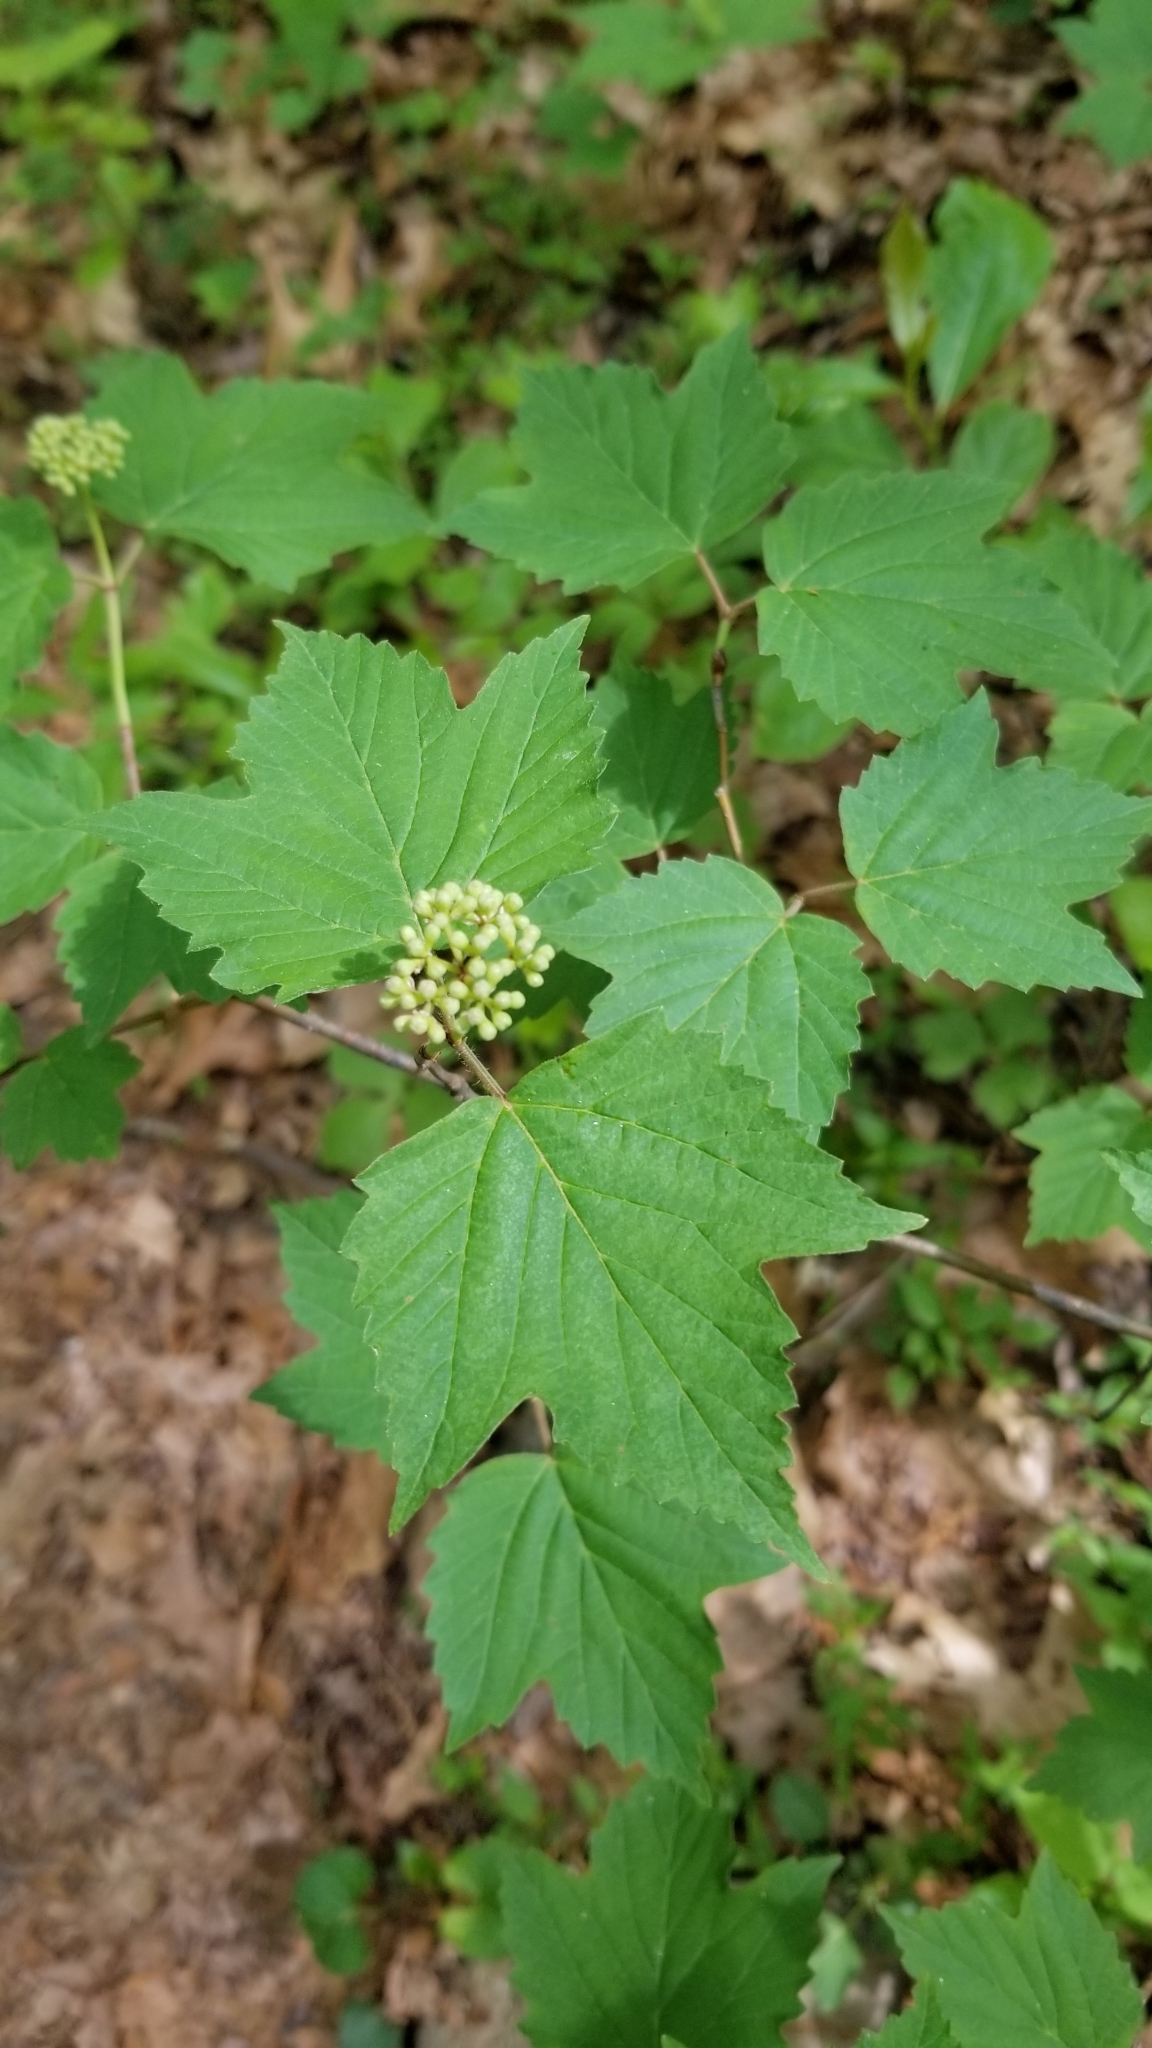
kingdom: Plantae
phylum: Tracheophyta
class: Magnoliopsida
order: Dipsacales
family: Viburnaceae
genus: Viburnum
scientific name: Viburnum acerifolium
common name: Dockmackie
